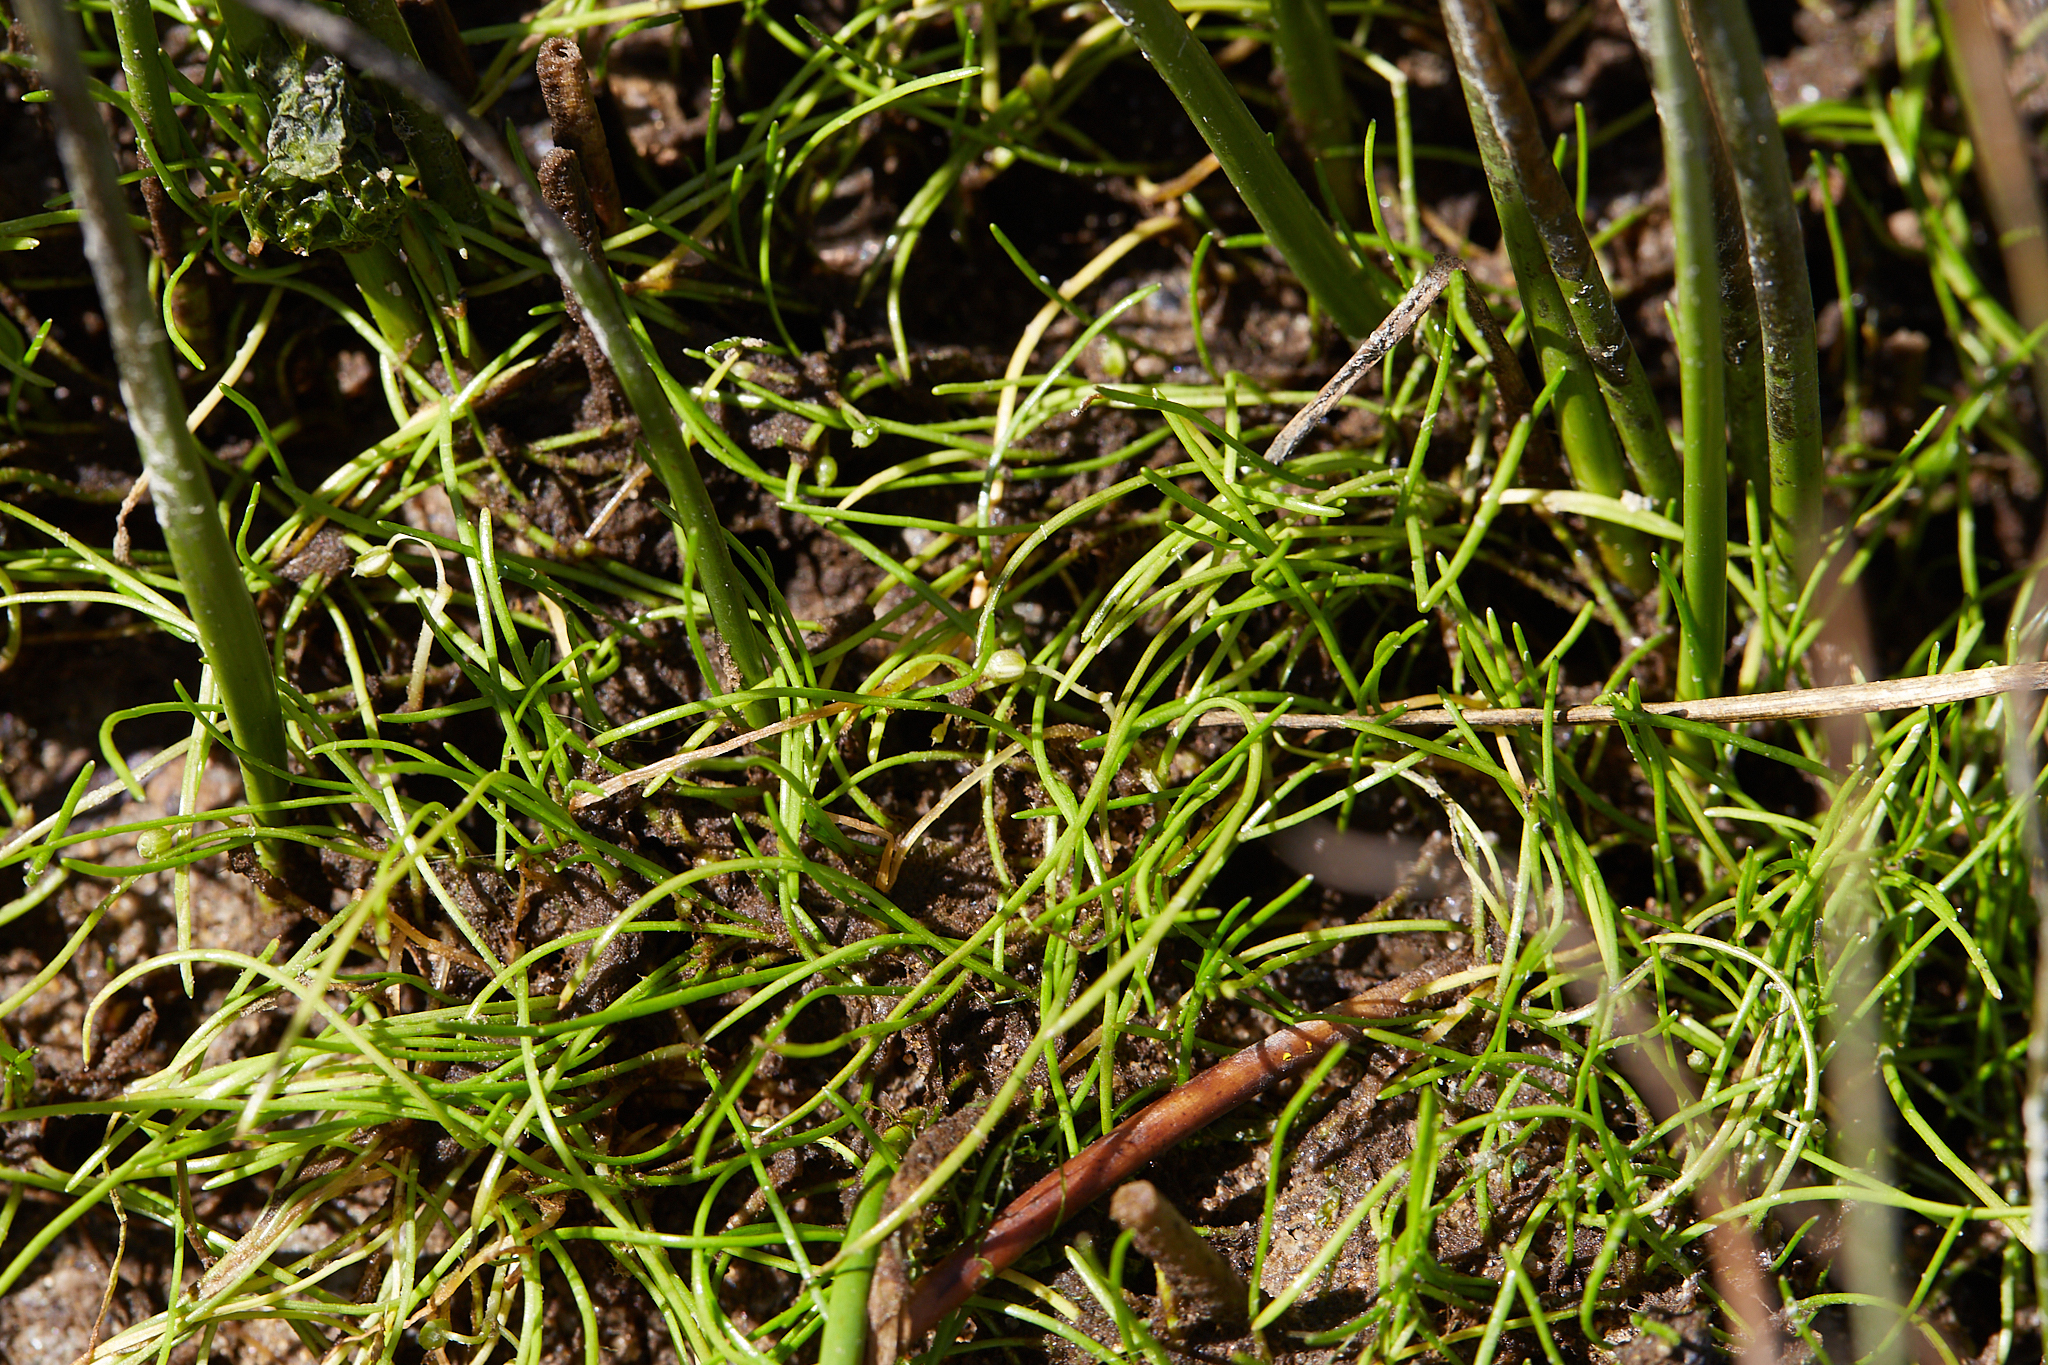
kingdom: Plantae
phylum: Tracheophyta
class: Magnoliopsida
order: Apiales
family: Apiaceae
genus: Lilaeopsis
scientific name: Lilaeopsis occidentalis
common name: Western grasswort
